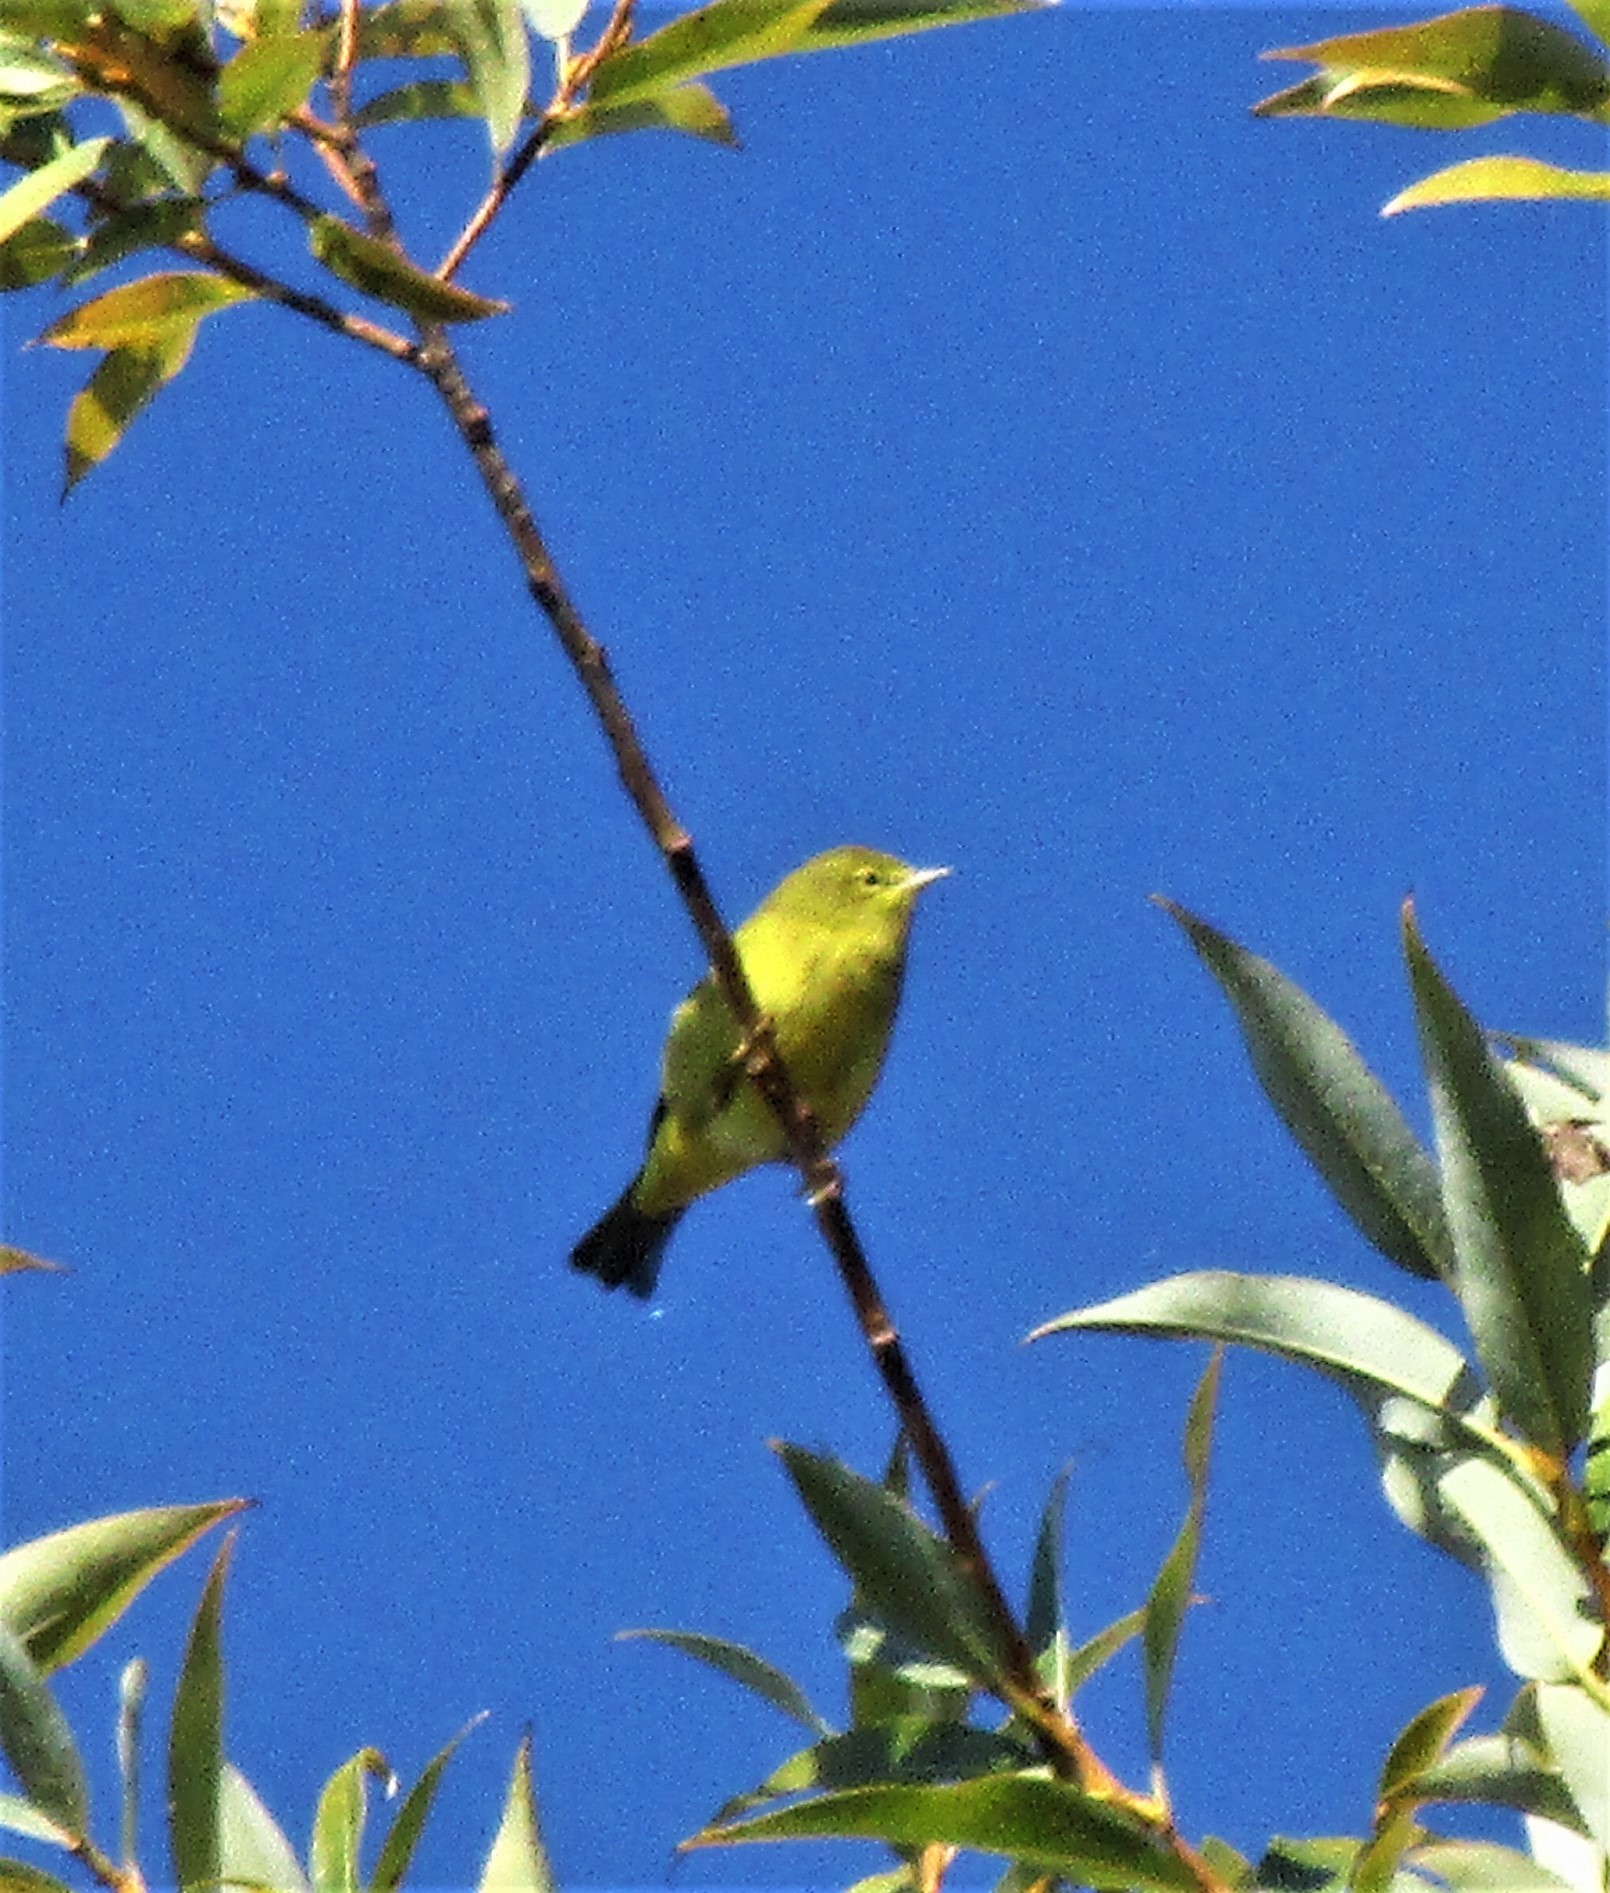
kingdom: Animalia
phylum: Chordata
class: Aves
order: Passeriformes
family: Parulidae
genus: Leiothlypis
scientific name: Leiothlypis celata
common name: Orange-crowned warbler
